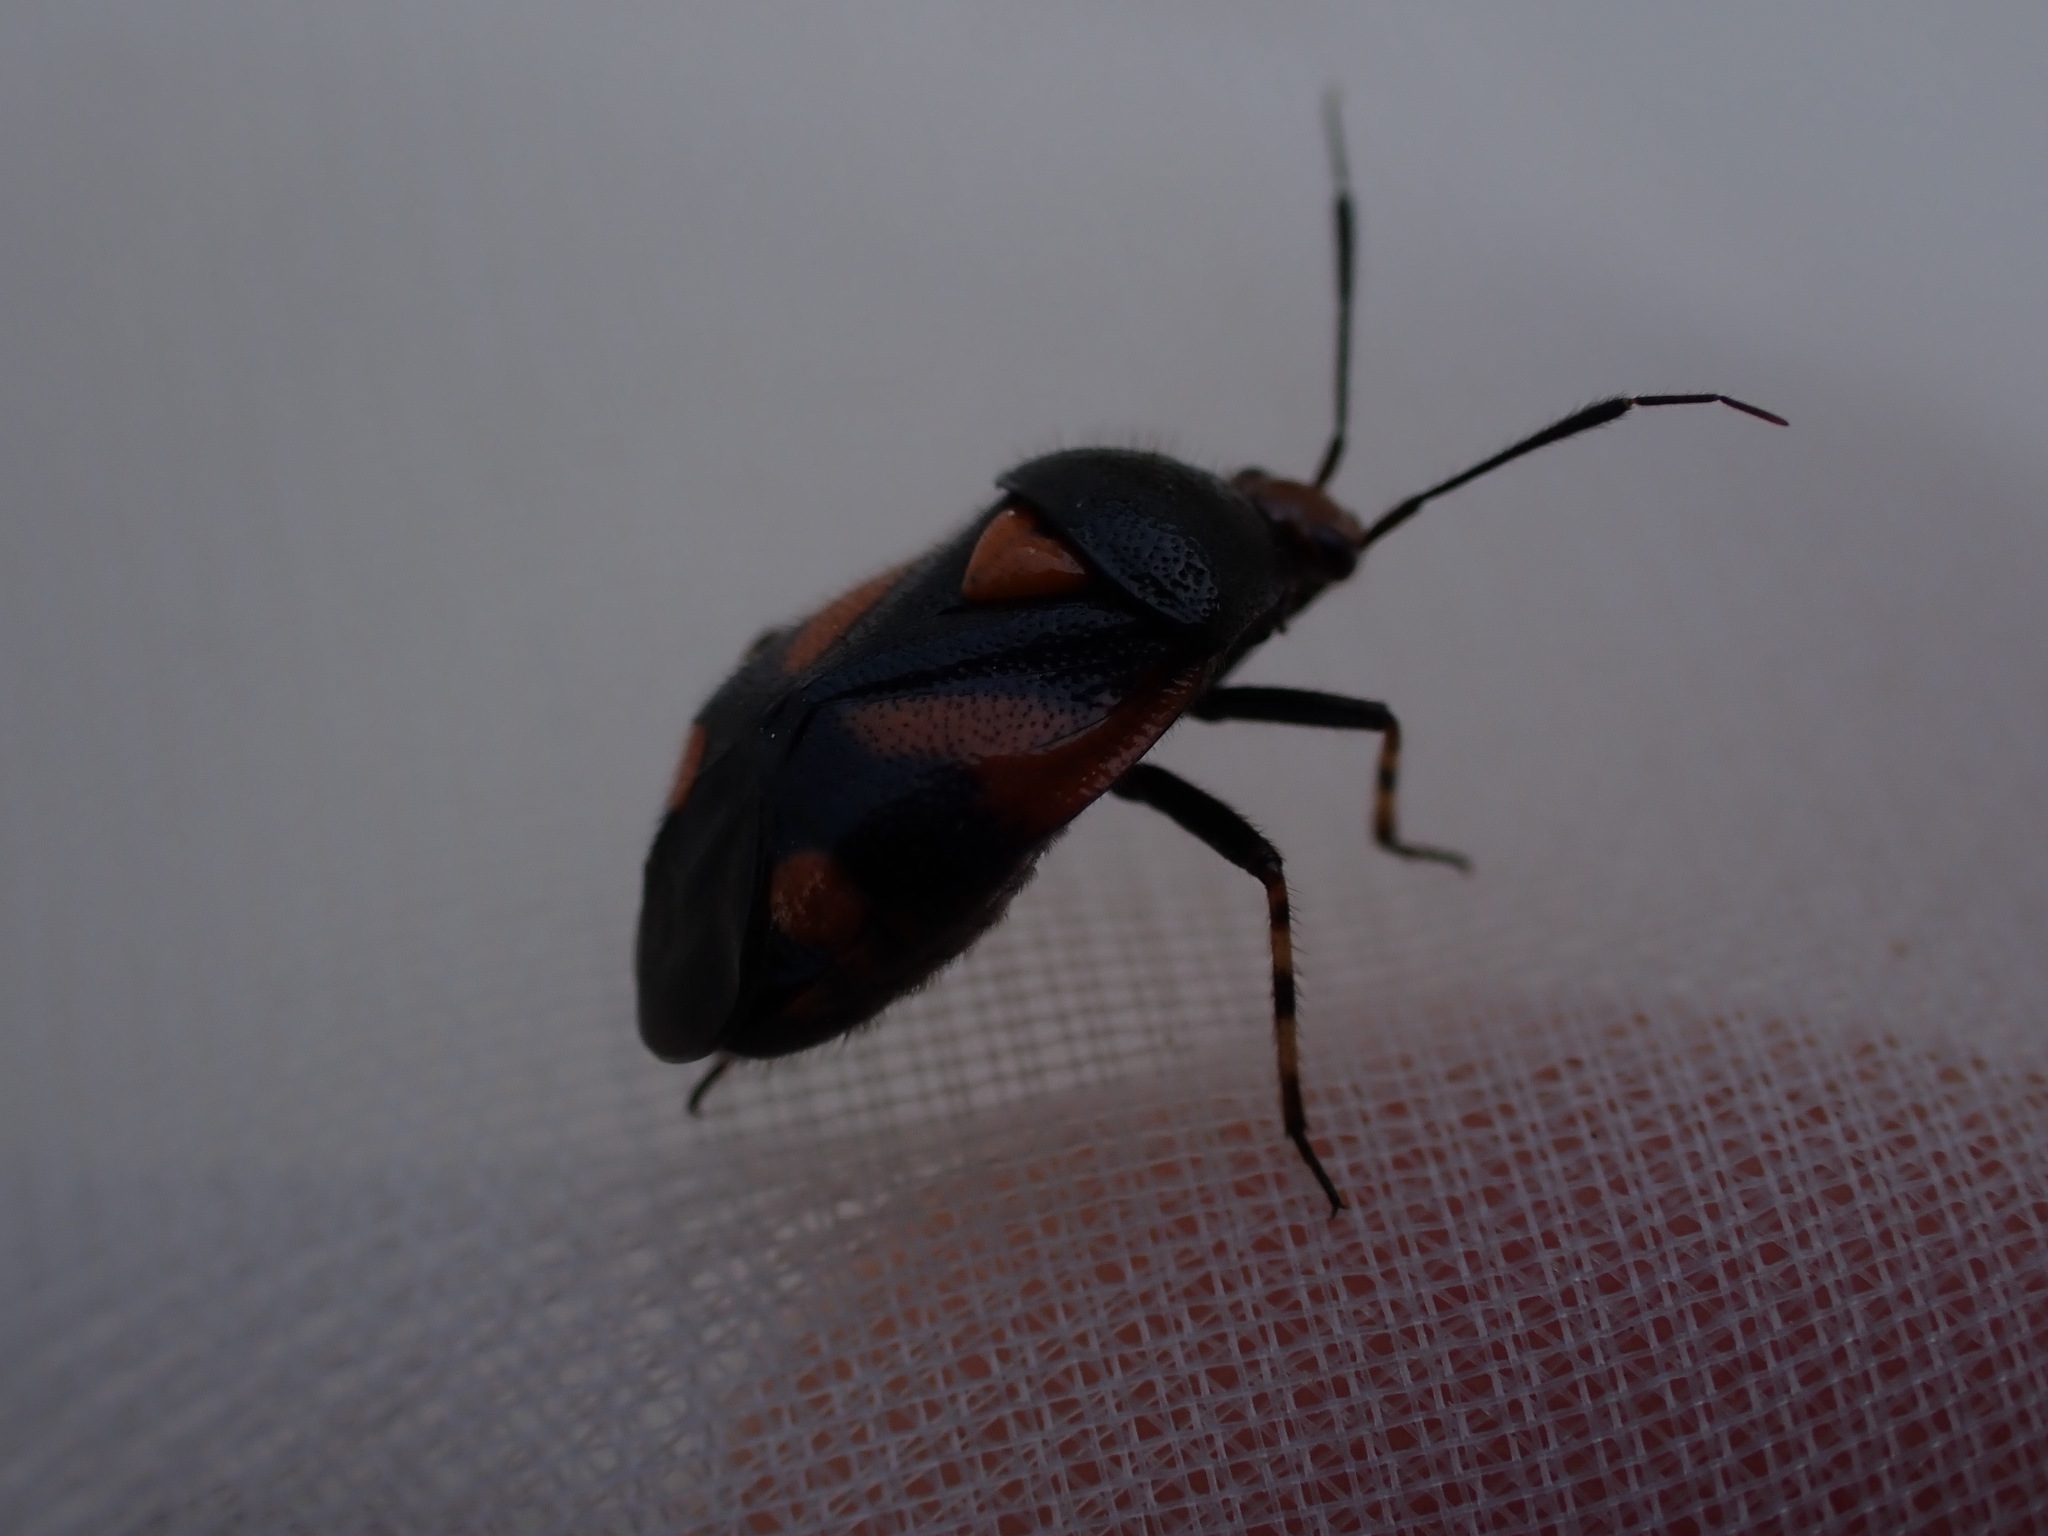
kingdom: Animalia
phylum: Arthropoda
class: Insecta
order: Hemiptera
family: Miridae
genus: Deraeocoris
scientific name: Deraeocoris schach
